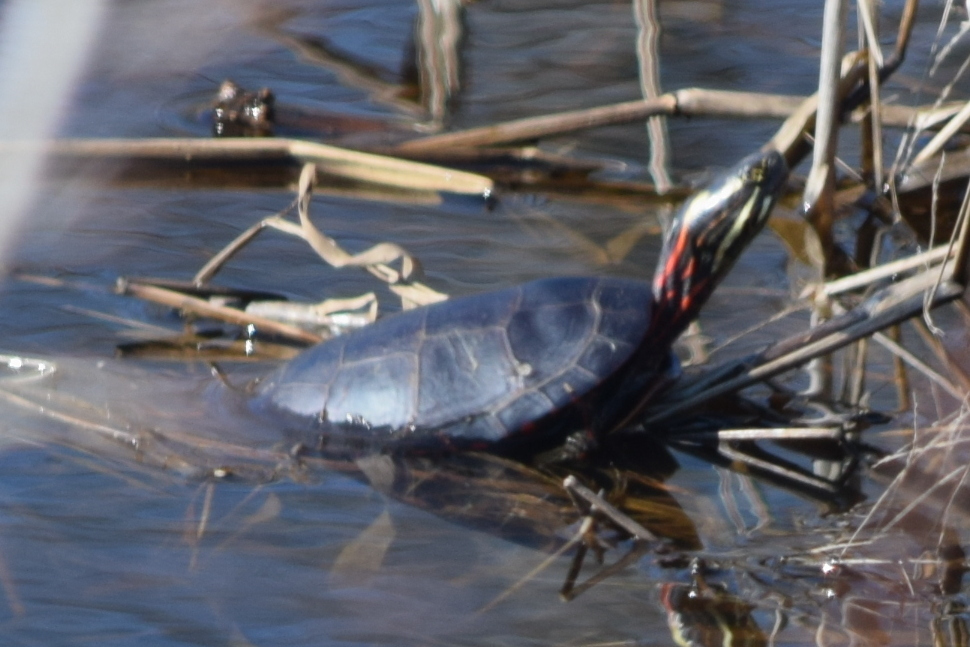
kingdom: Animalia
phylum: Chordata
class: Testudines
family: Emydidae
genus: Chrysemys
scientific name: Chrysemys picta
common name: Painted turtle
